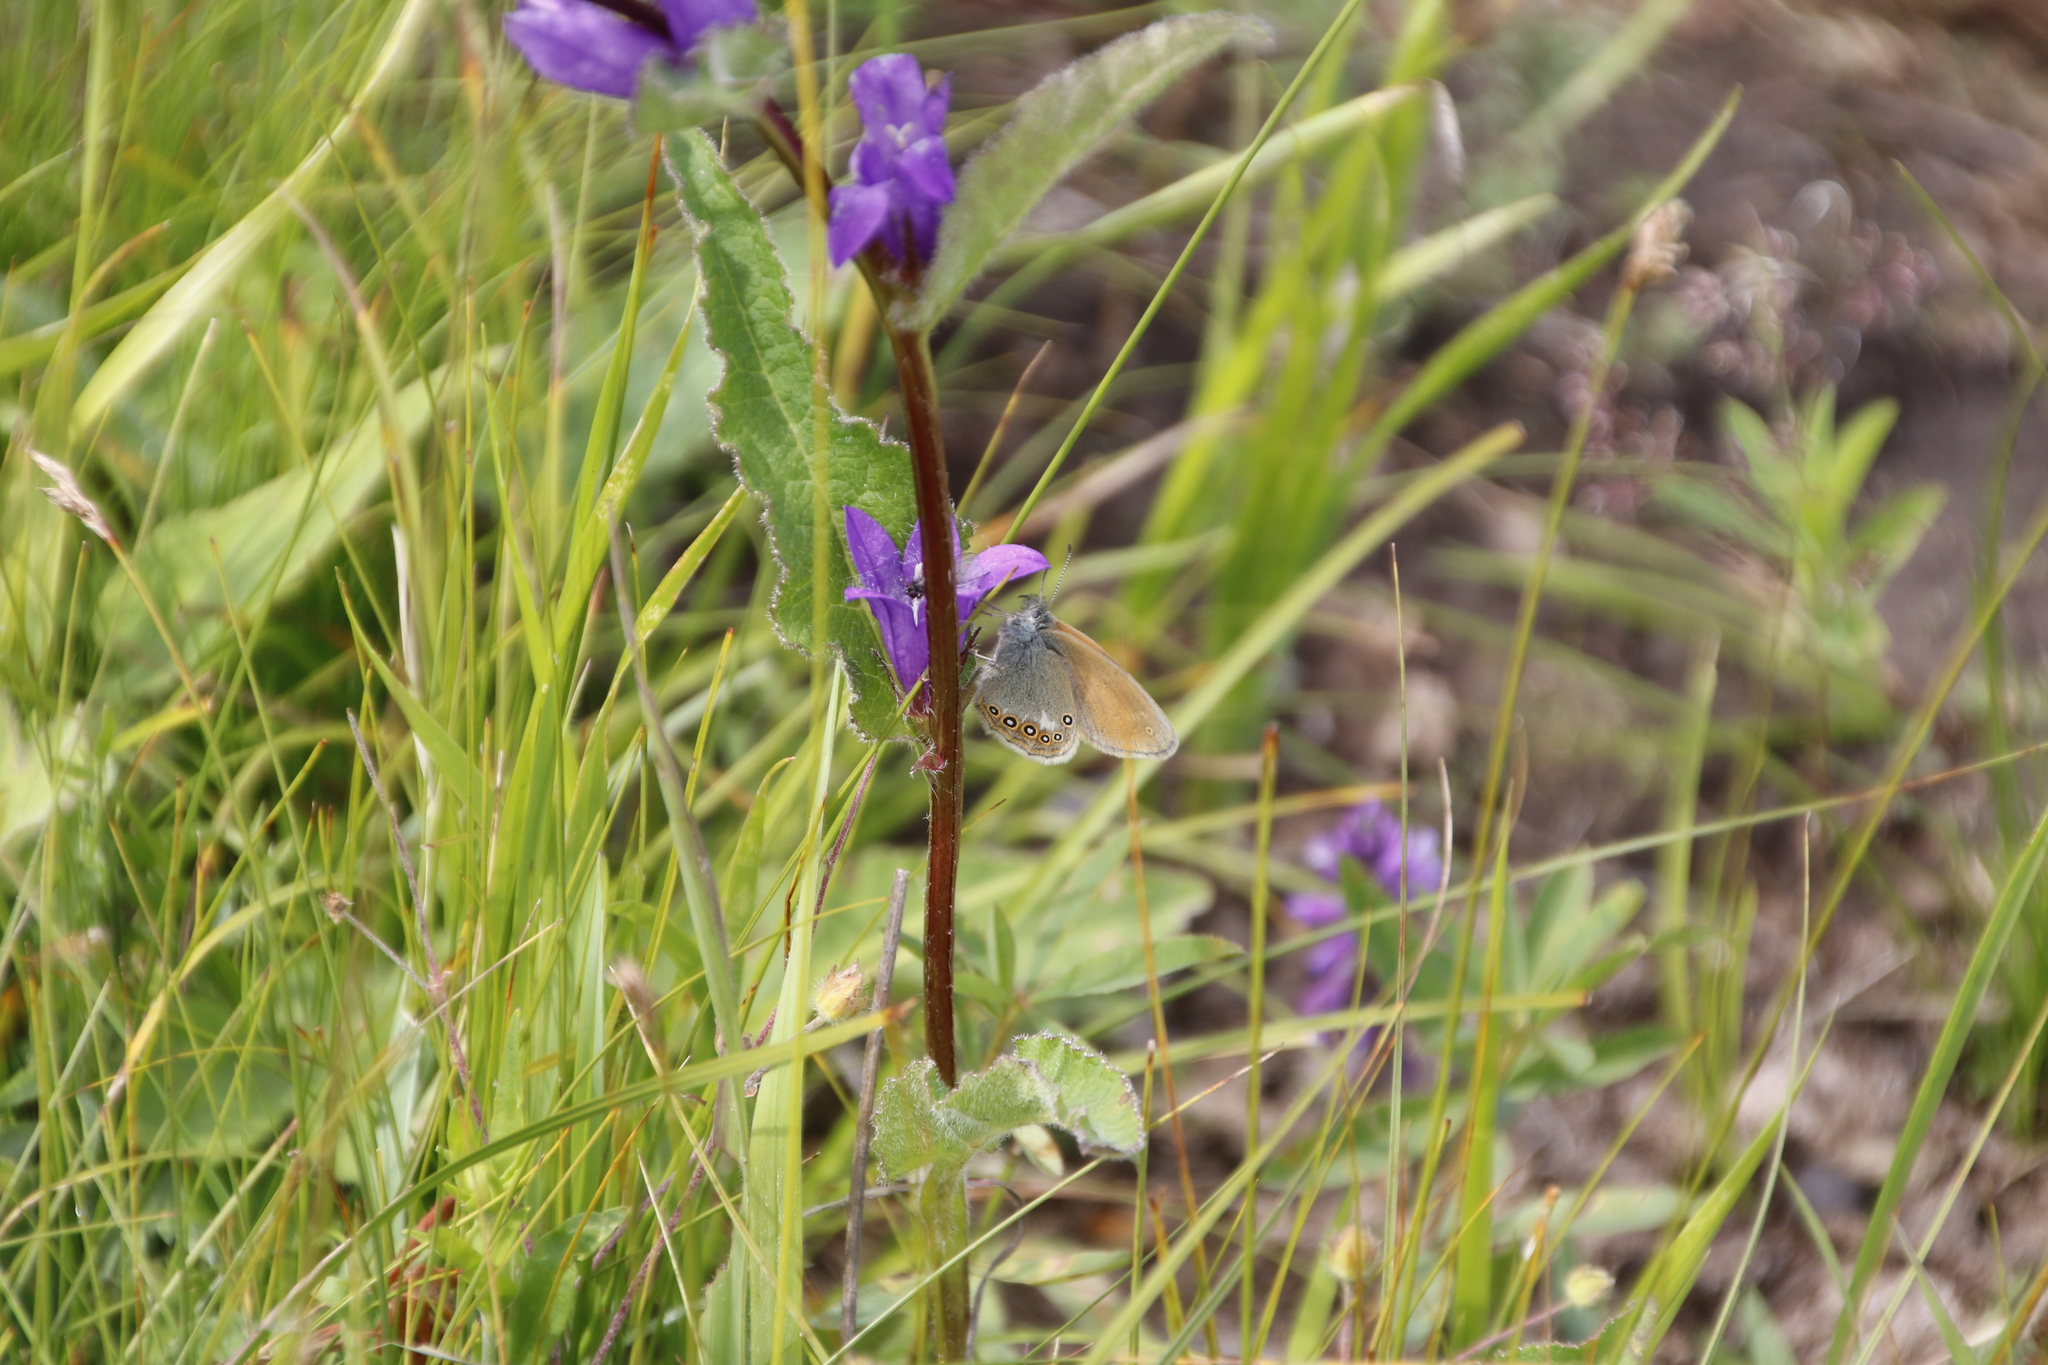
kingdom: Animalia
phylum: Arthropoda
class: Insecta
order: Lepidoptera
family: Nymphalidae
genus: Coenonympha
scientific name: Coenonympha iphis
